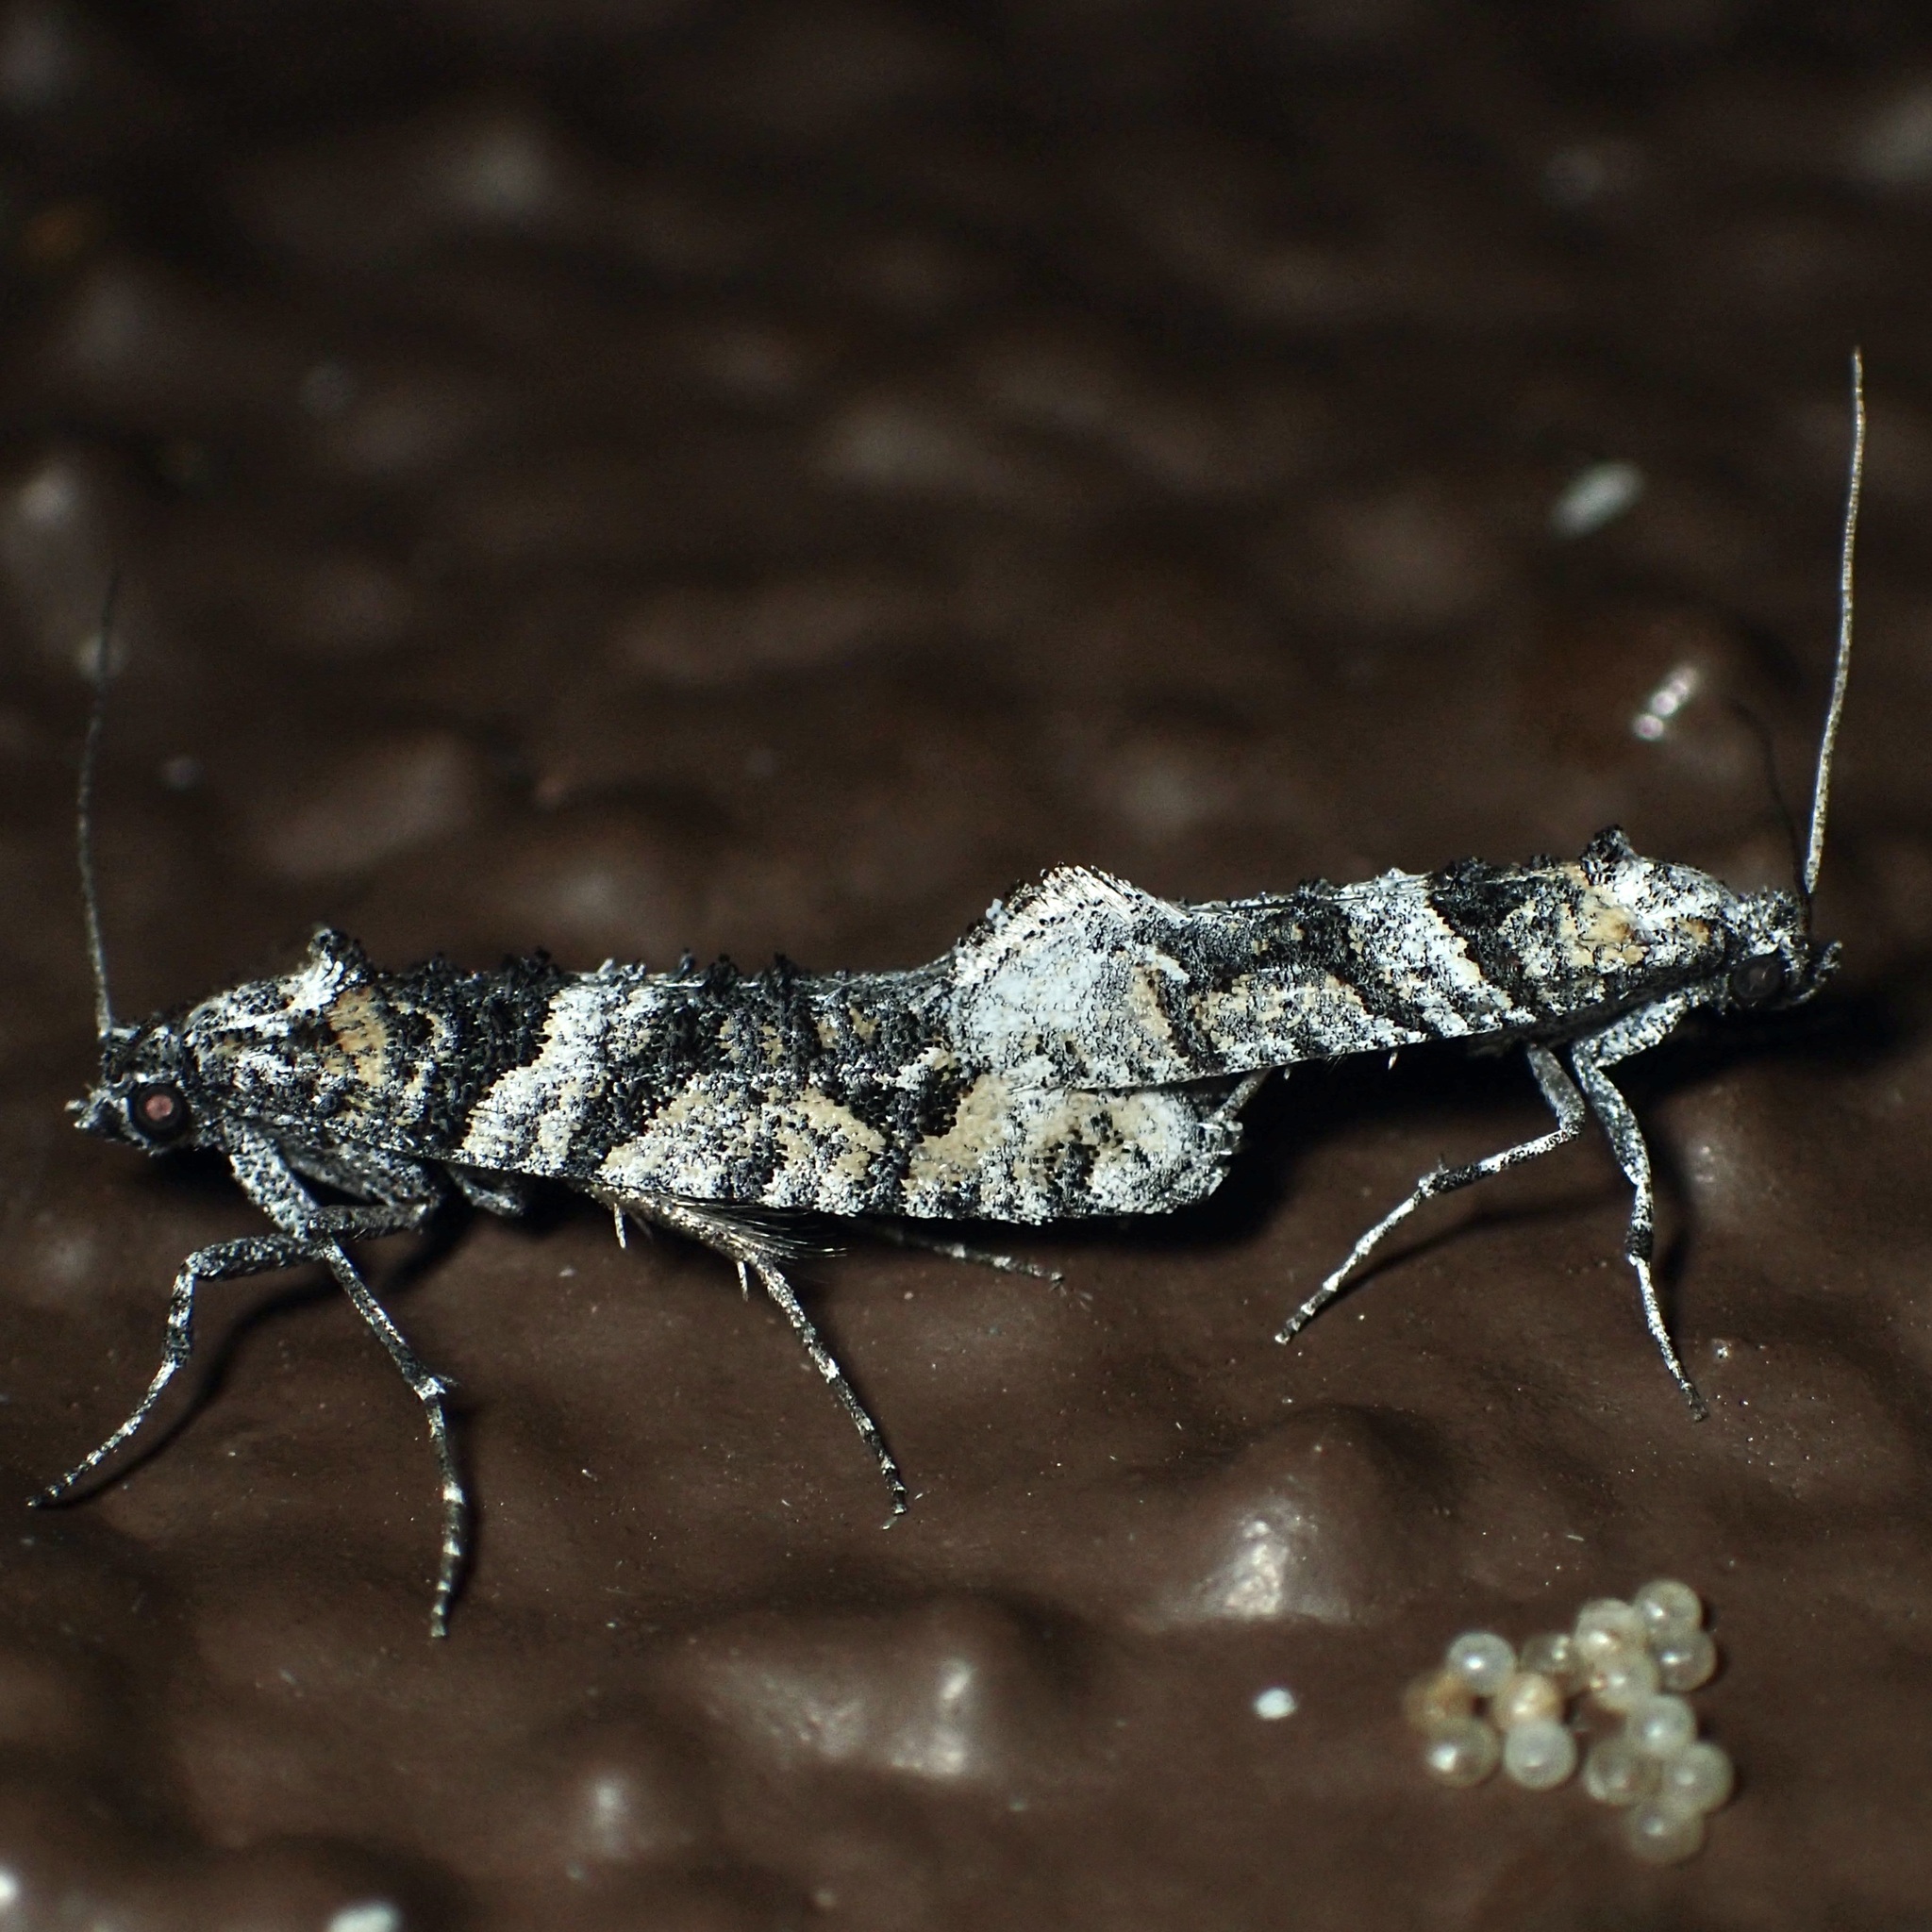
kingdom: Animalia
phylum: Arthropoda
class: Insecta
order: Lepidoptera
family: Tineidae
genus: Dyotopasta
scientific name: Dyotopasta yumaella
